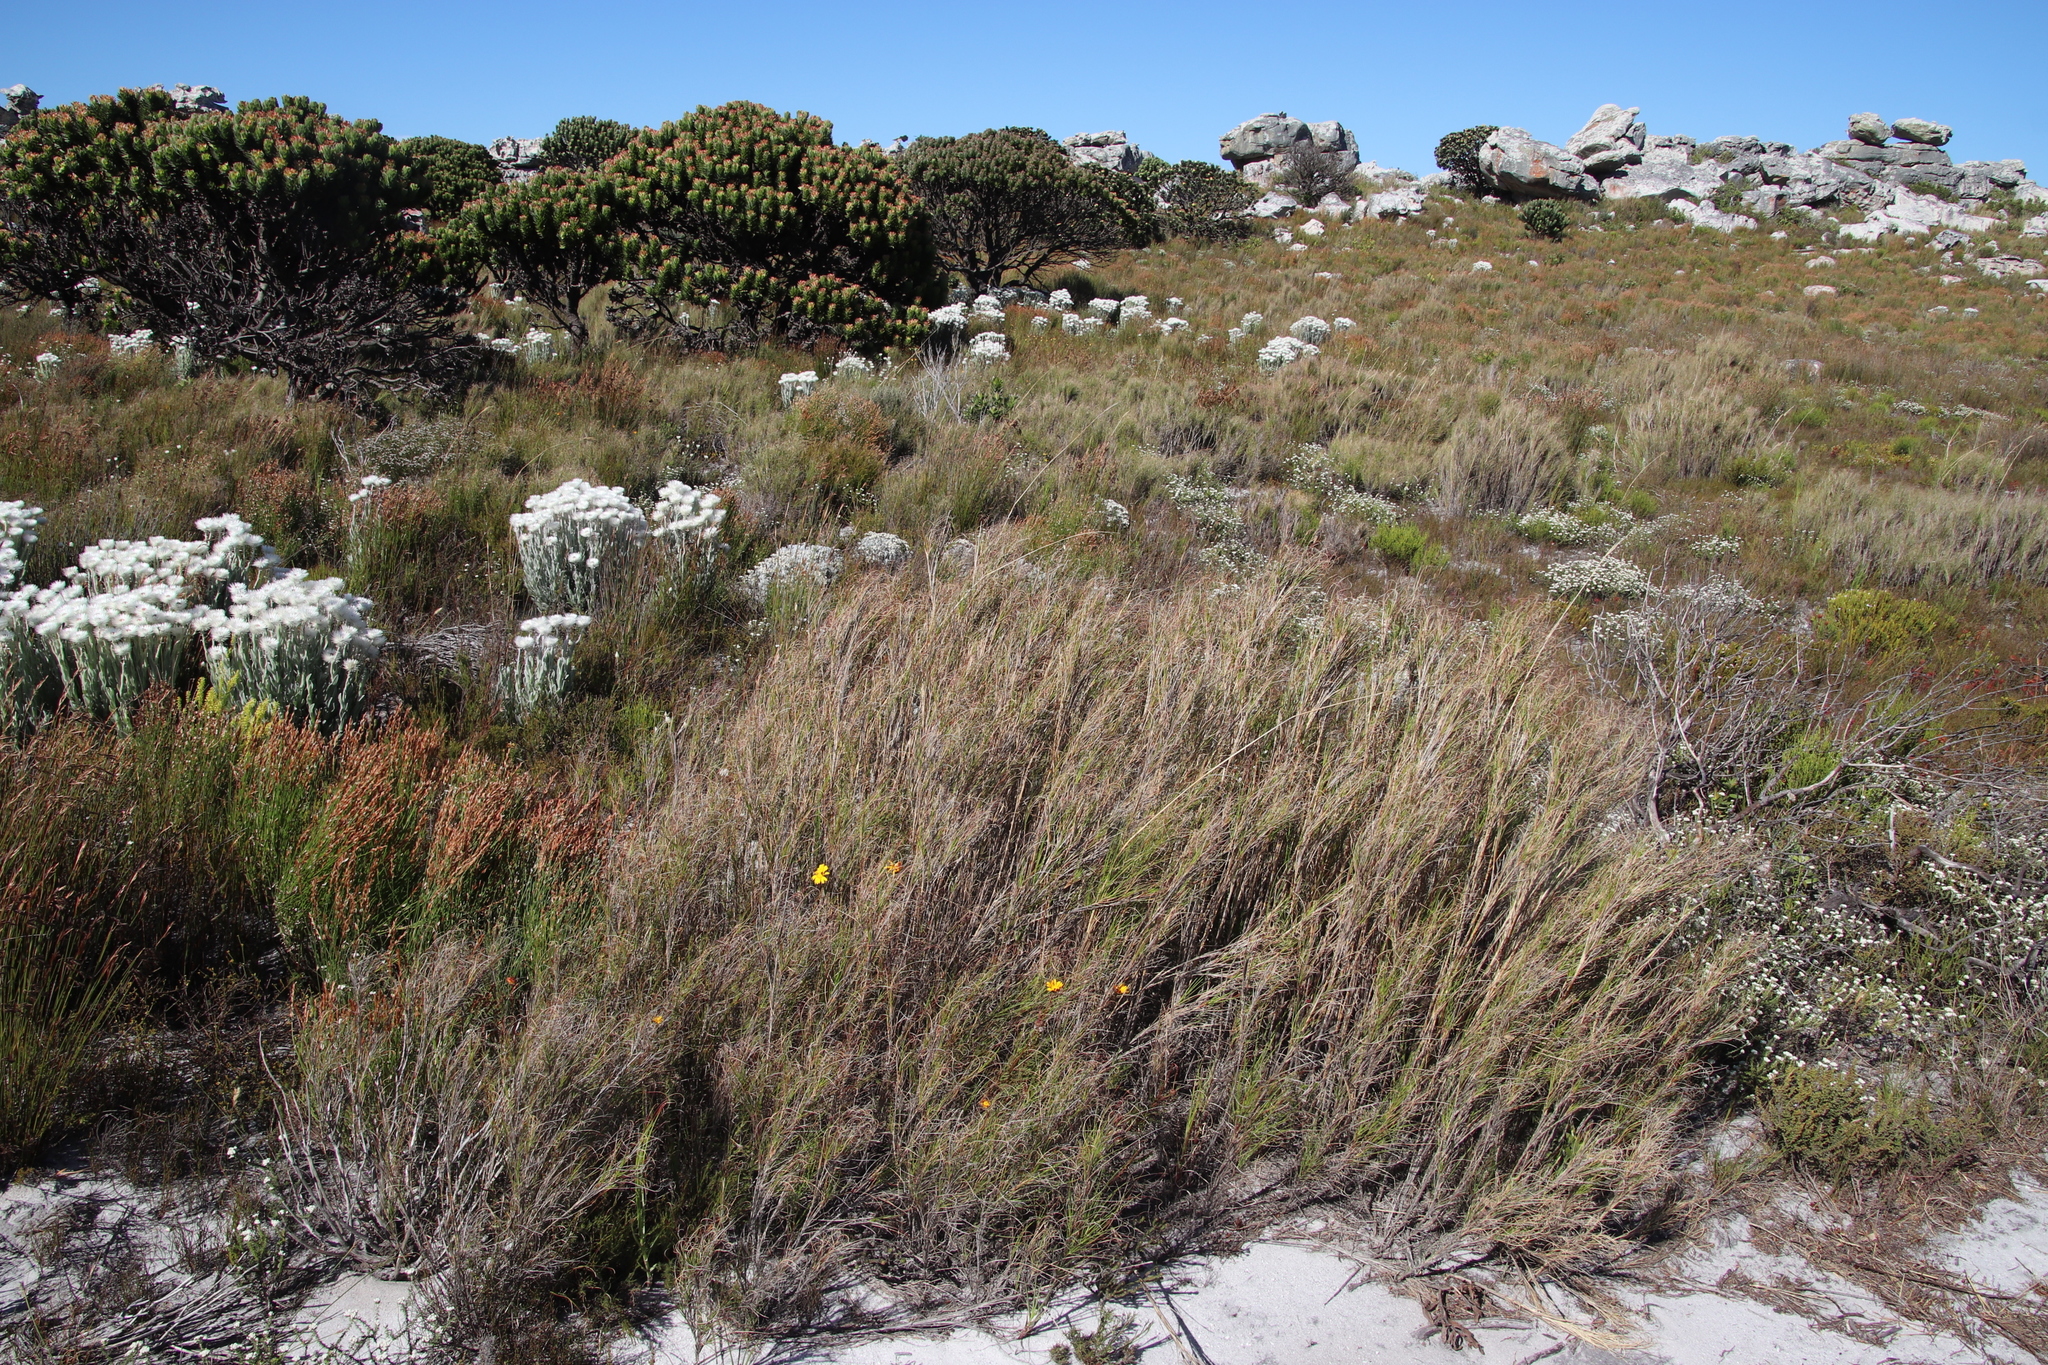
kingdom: Plantae
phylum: Tracheophyta
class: Liliopsida
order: Poales
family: Poaceae
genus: Pseudopentameris
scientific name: Pseudopentameris macrantha
